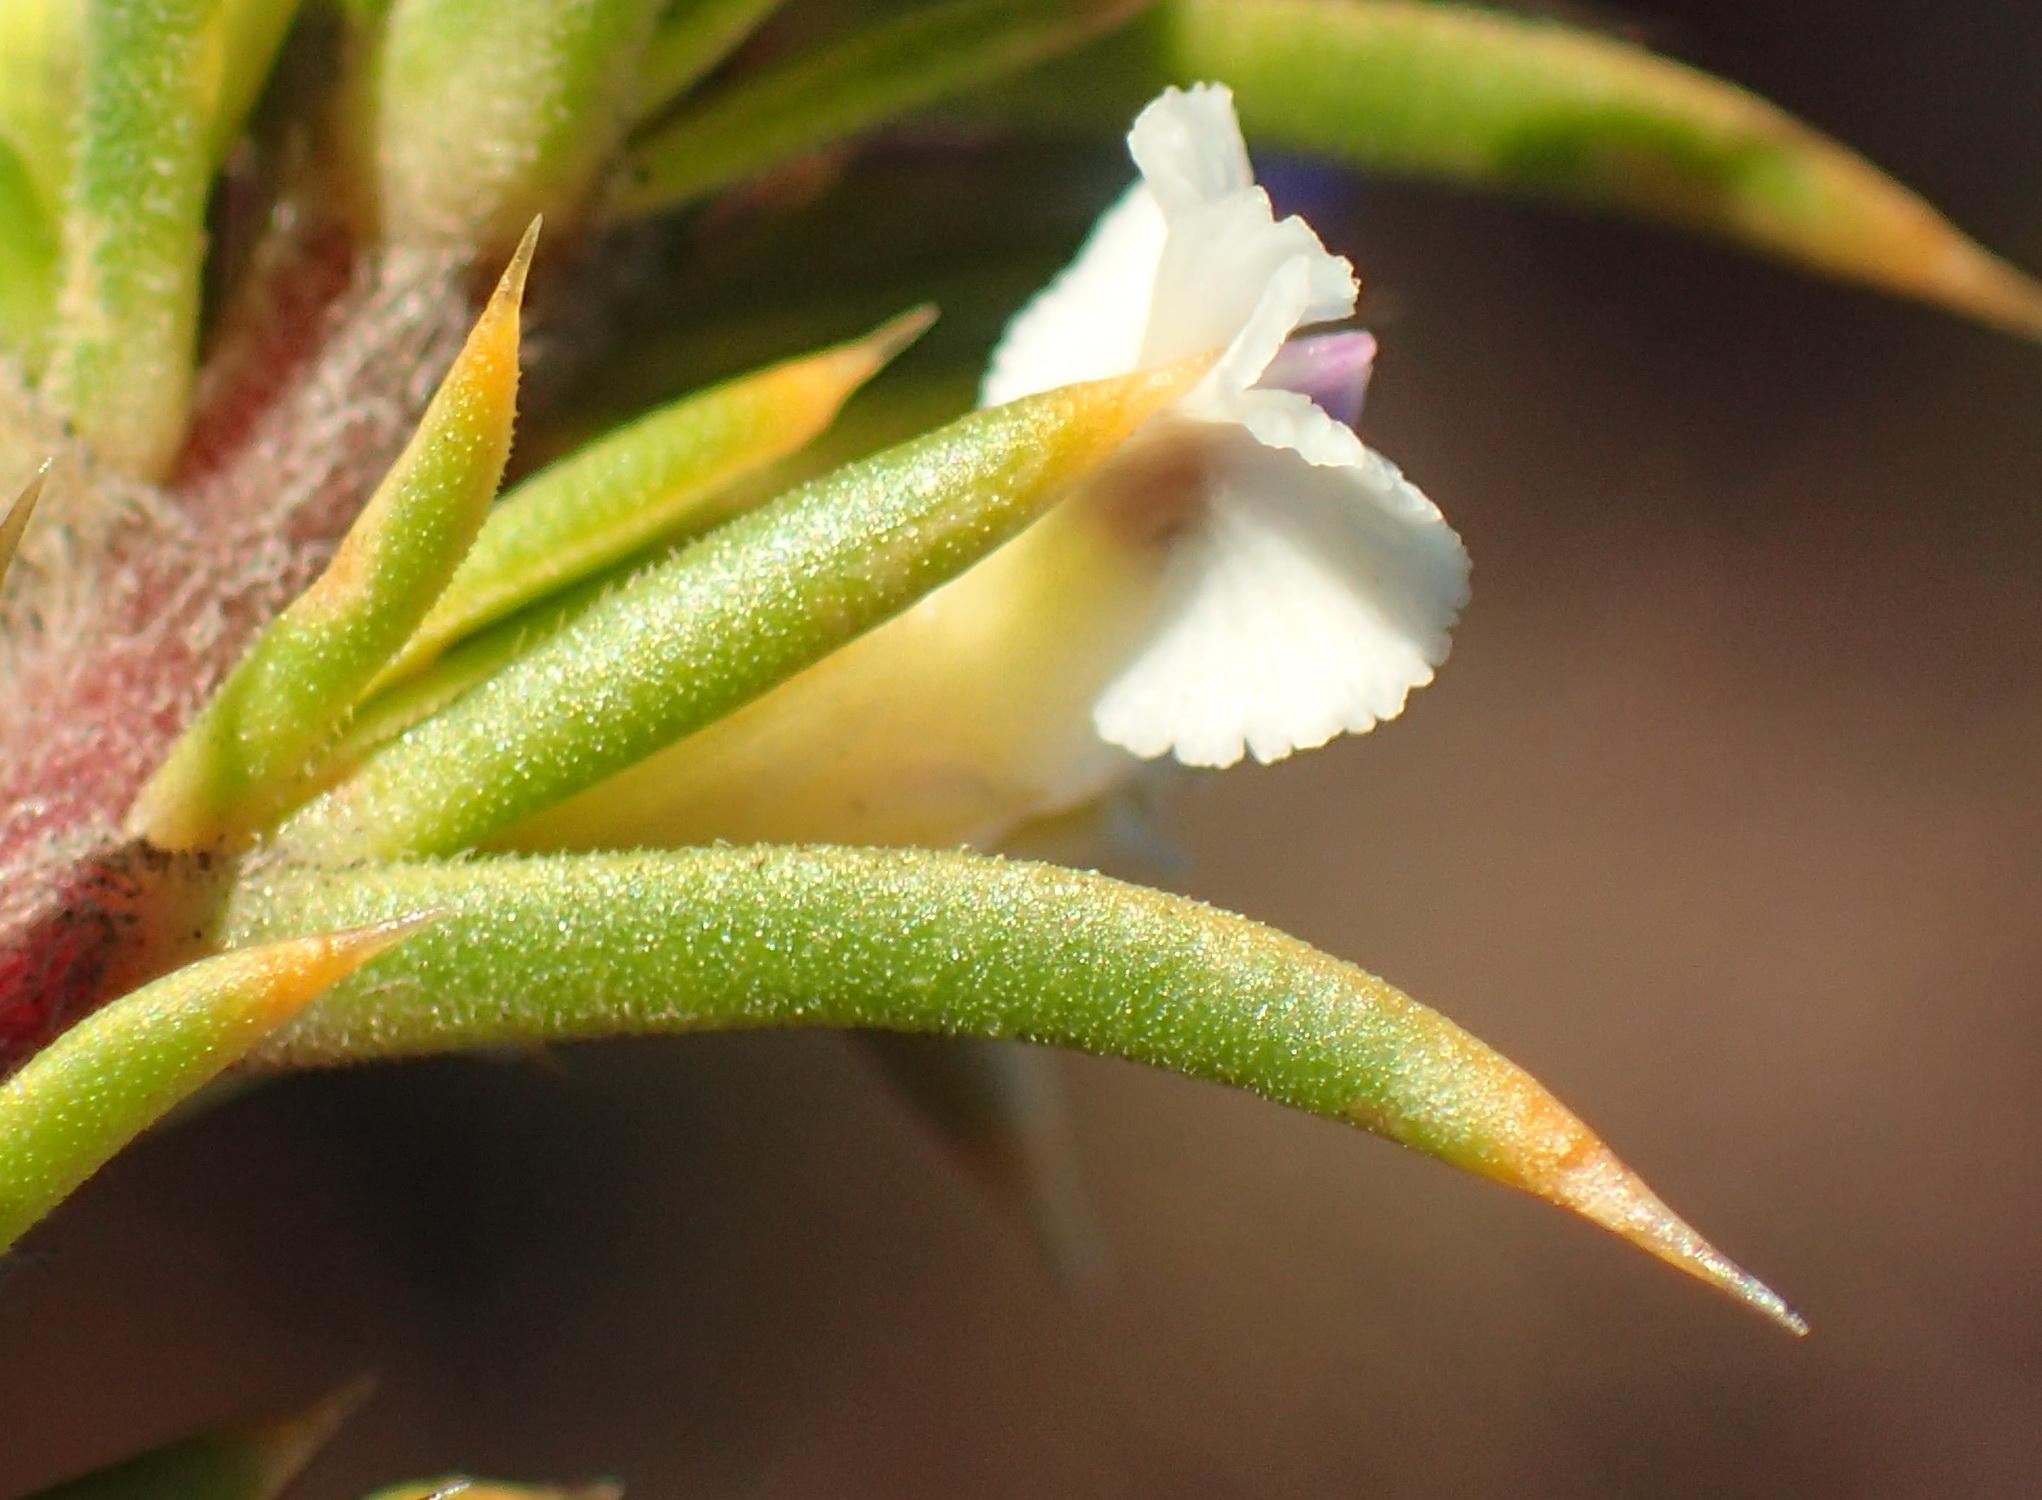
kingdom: Plantae
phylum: Tracheophyta
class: Magnoliopsida
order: Fabales
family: Polygalaceae
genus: Muraltia
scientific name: Muraltia ericifolia
